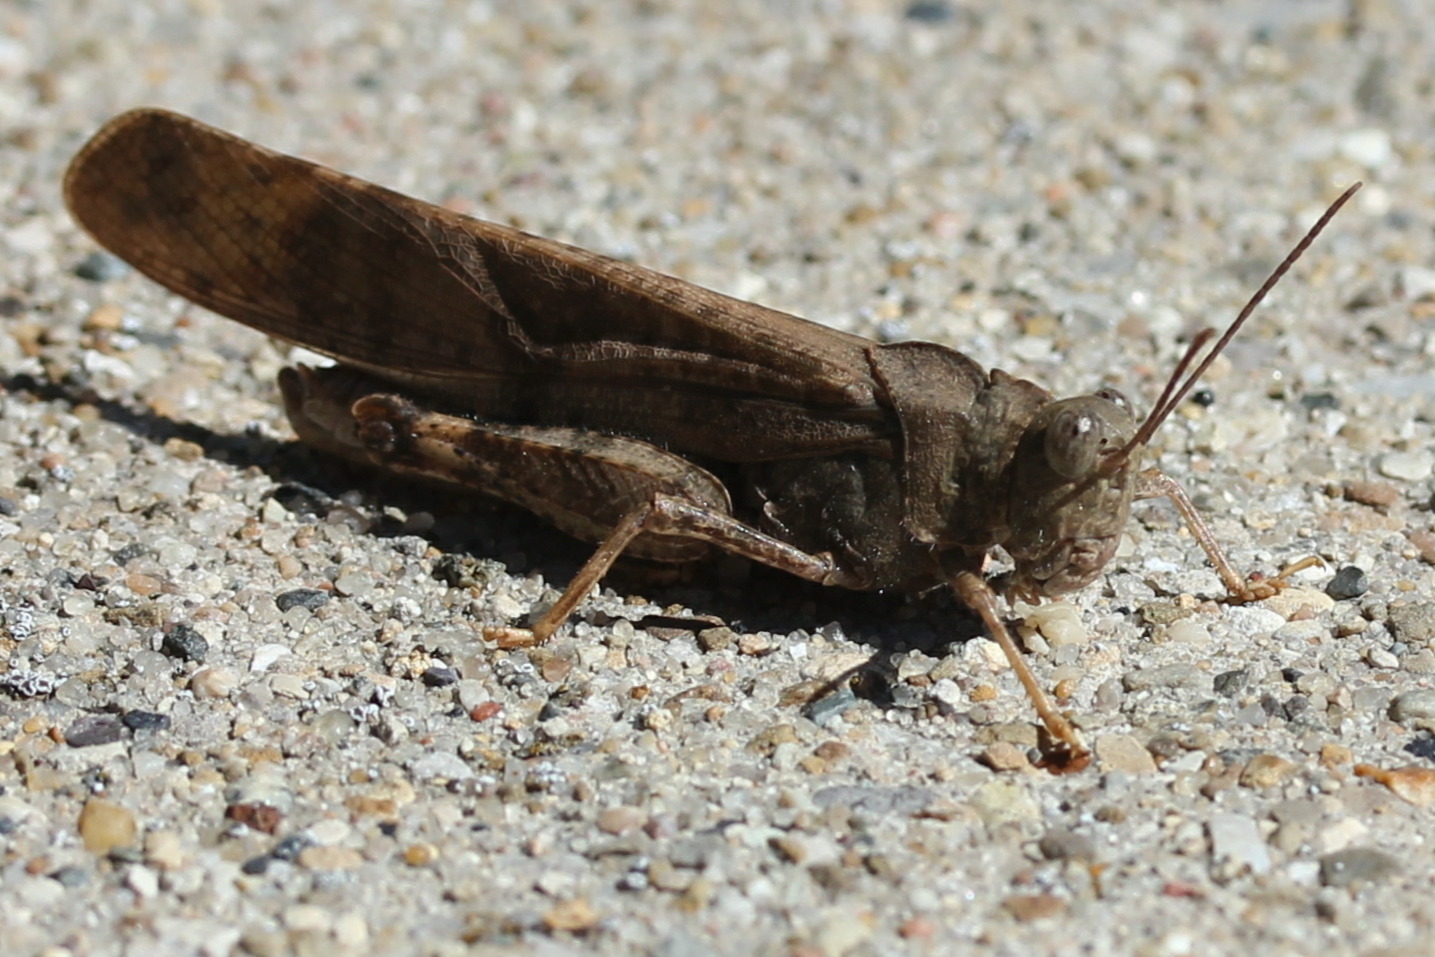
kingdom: Animalia
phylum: Arthropoda
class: Insecta
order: Orthoptera
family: Acrididae
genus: Dissosteira
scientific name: Dissosteira carolina
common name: Carolina grasshopper
